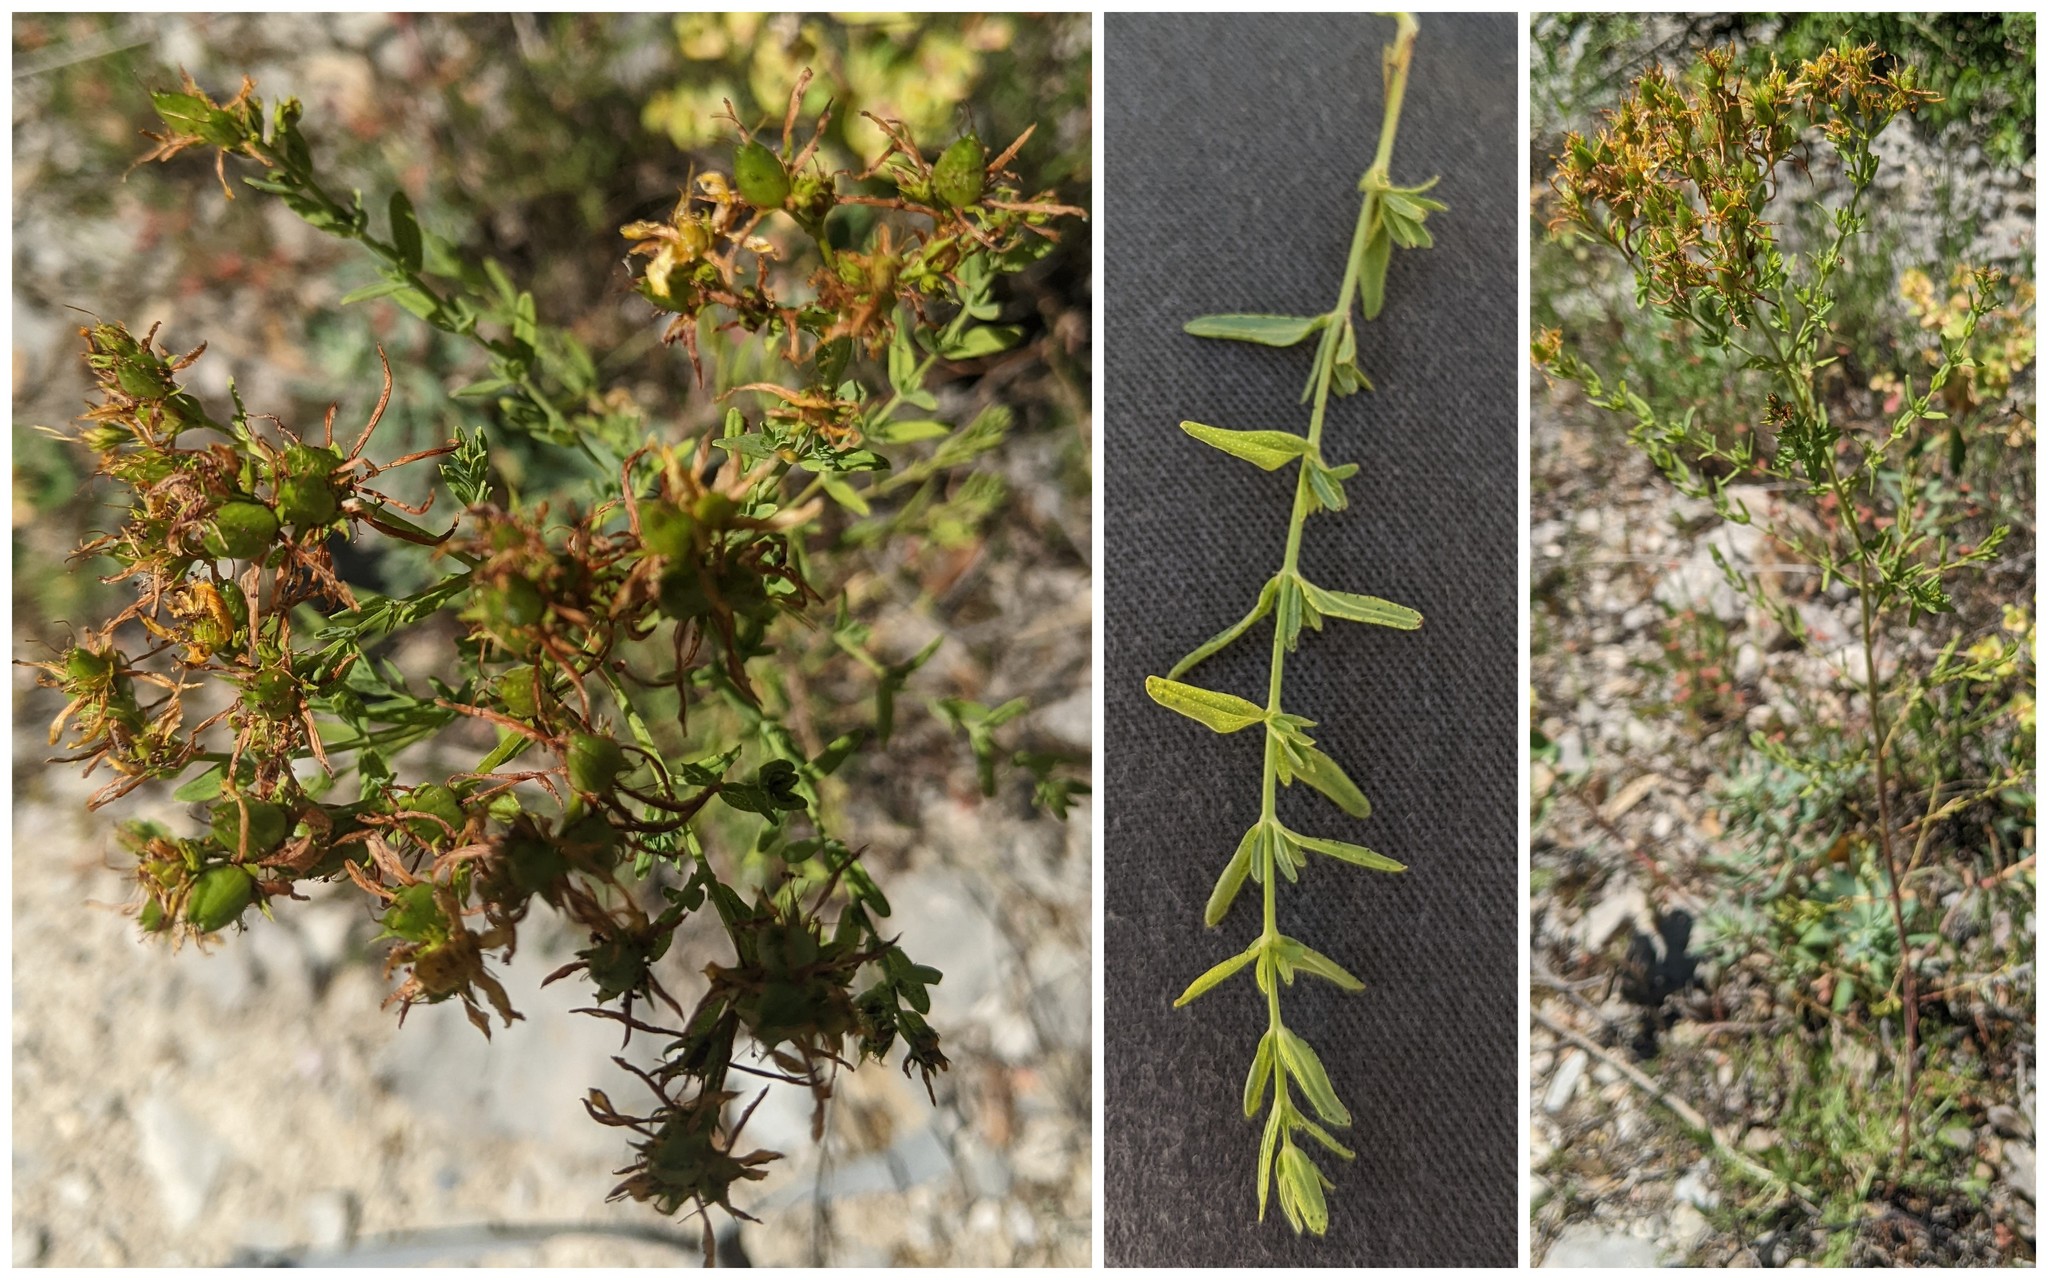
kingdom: Plantae
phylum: Tracheophyta
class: Magnoliopsida
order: Malpighiales
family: Hypericaceae
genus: Hypericum
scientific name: Hypericum perforatum
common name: Common st. johnswort
